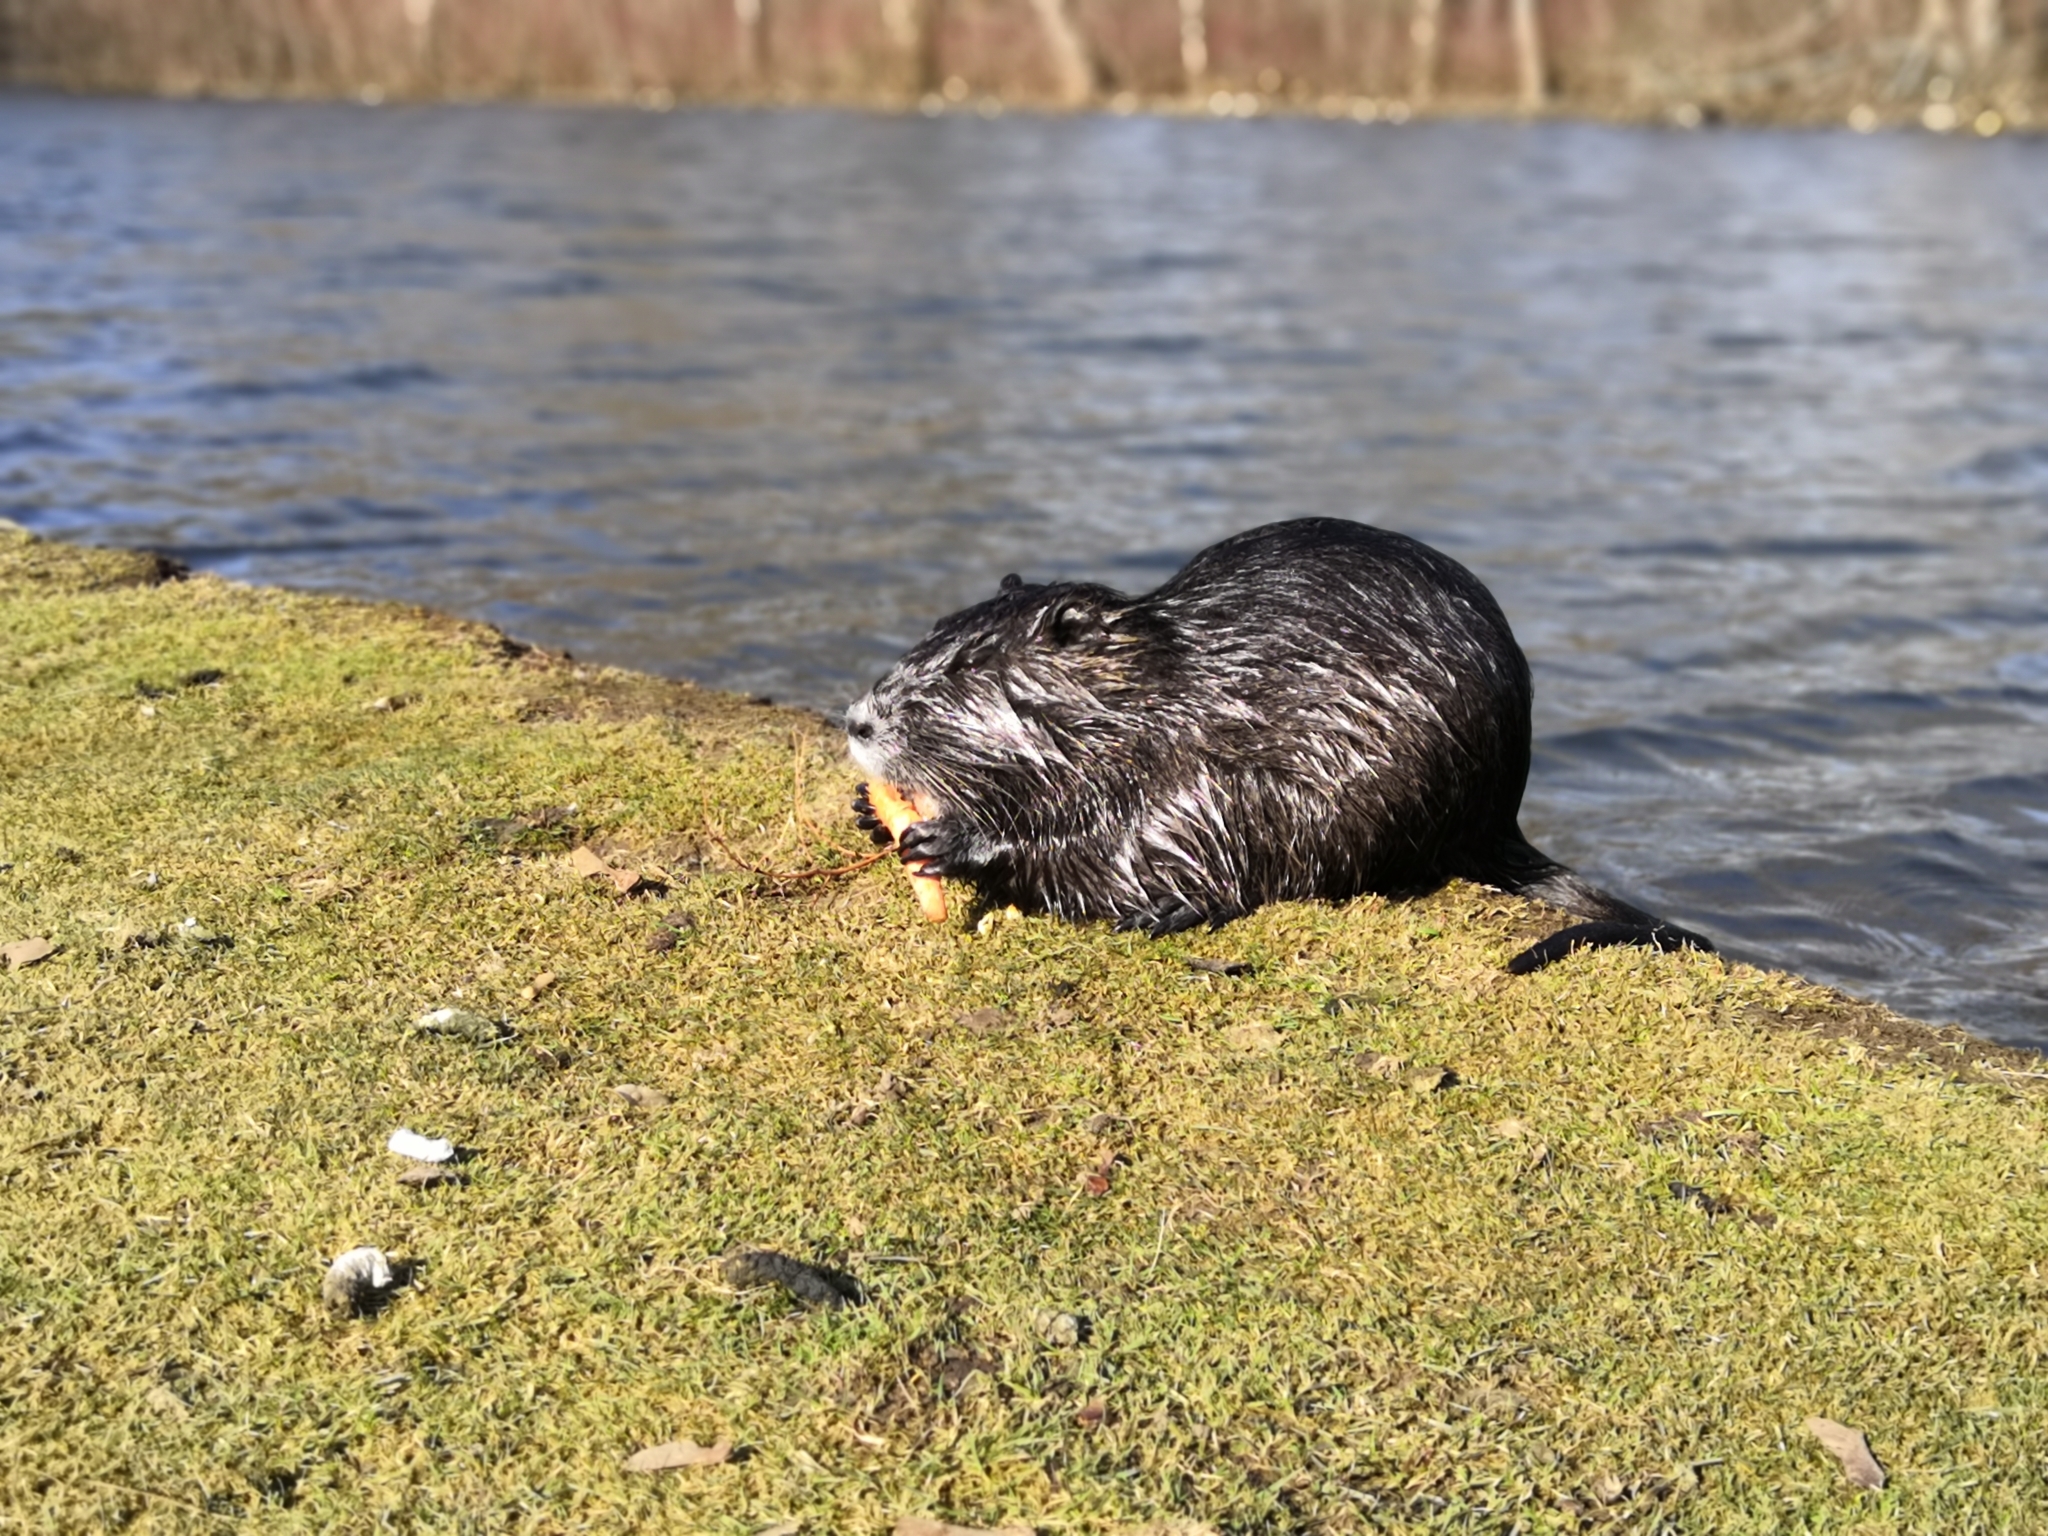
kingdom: Animalia
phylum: Chordata
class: Mammalia
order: Rodentia
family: Myocastoridae
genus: Myocastor
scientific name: Myocastor coypus
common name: Coypu
